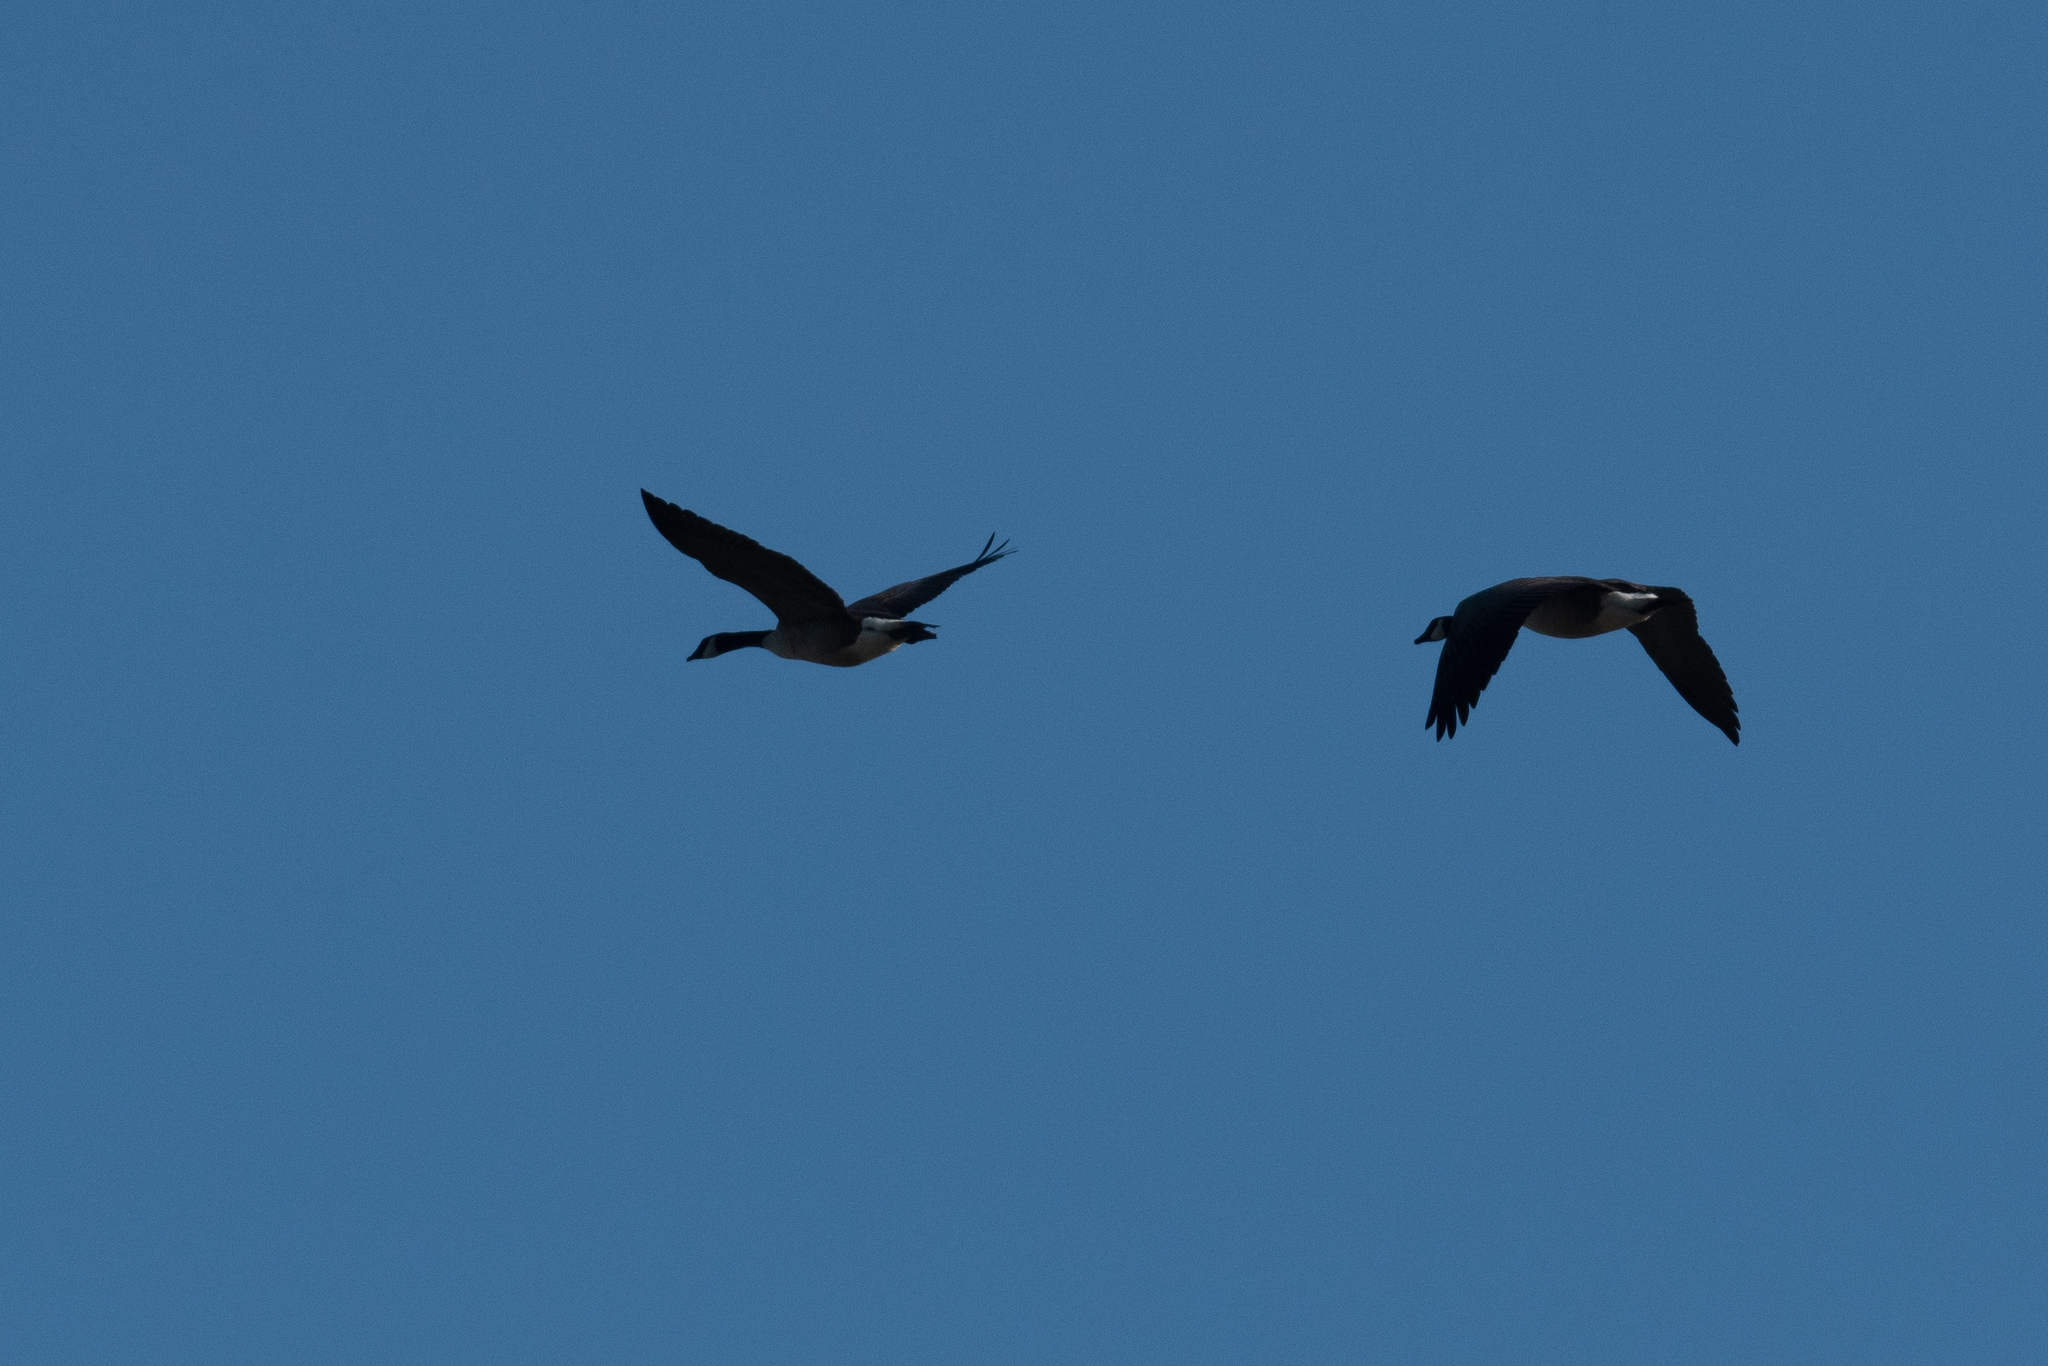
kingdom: Animalia
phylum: Chordata
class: Aves
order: Anseriformes
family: Anatidae
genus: Branta
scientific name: Branta canadensis
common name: Canada goose
